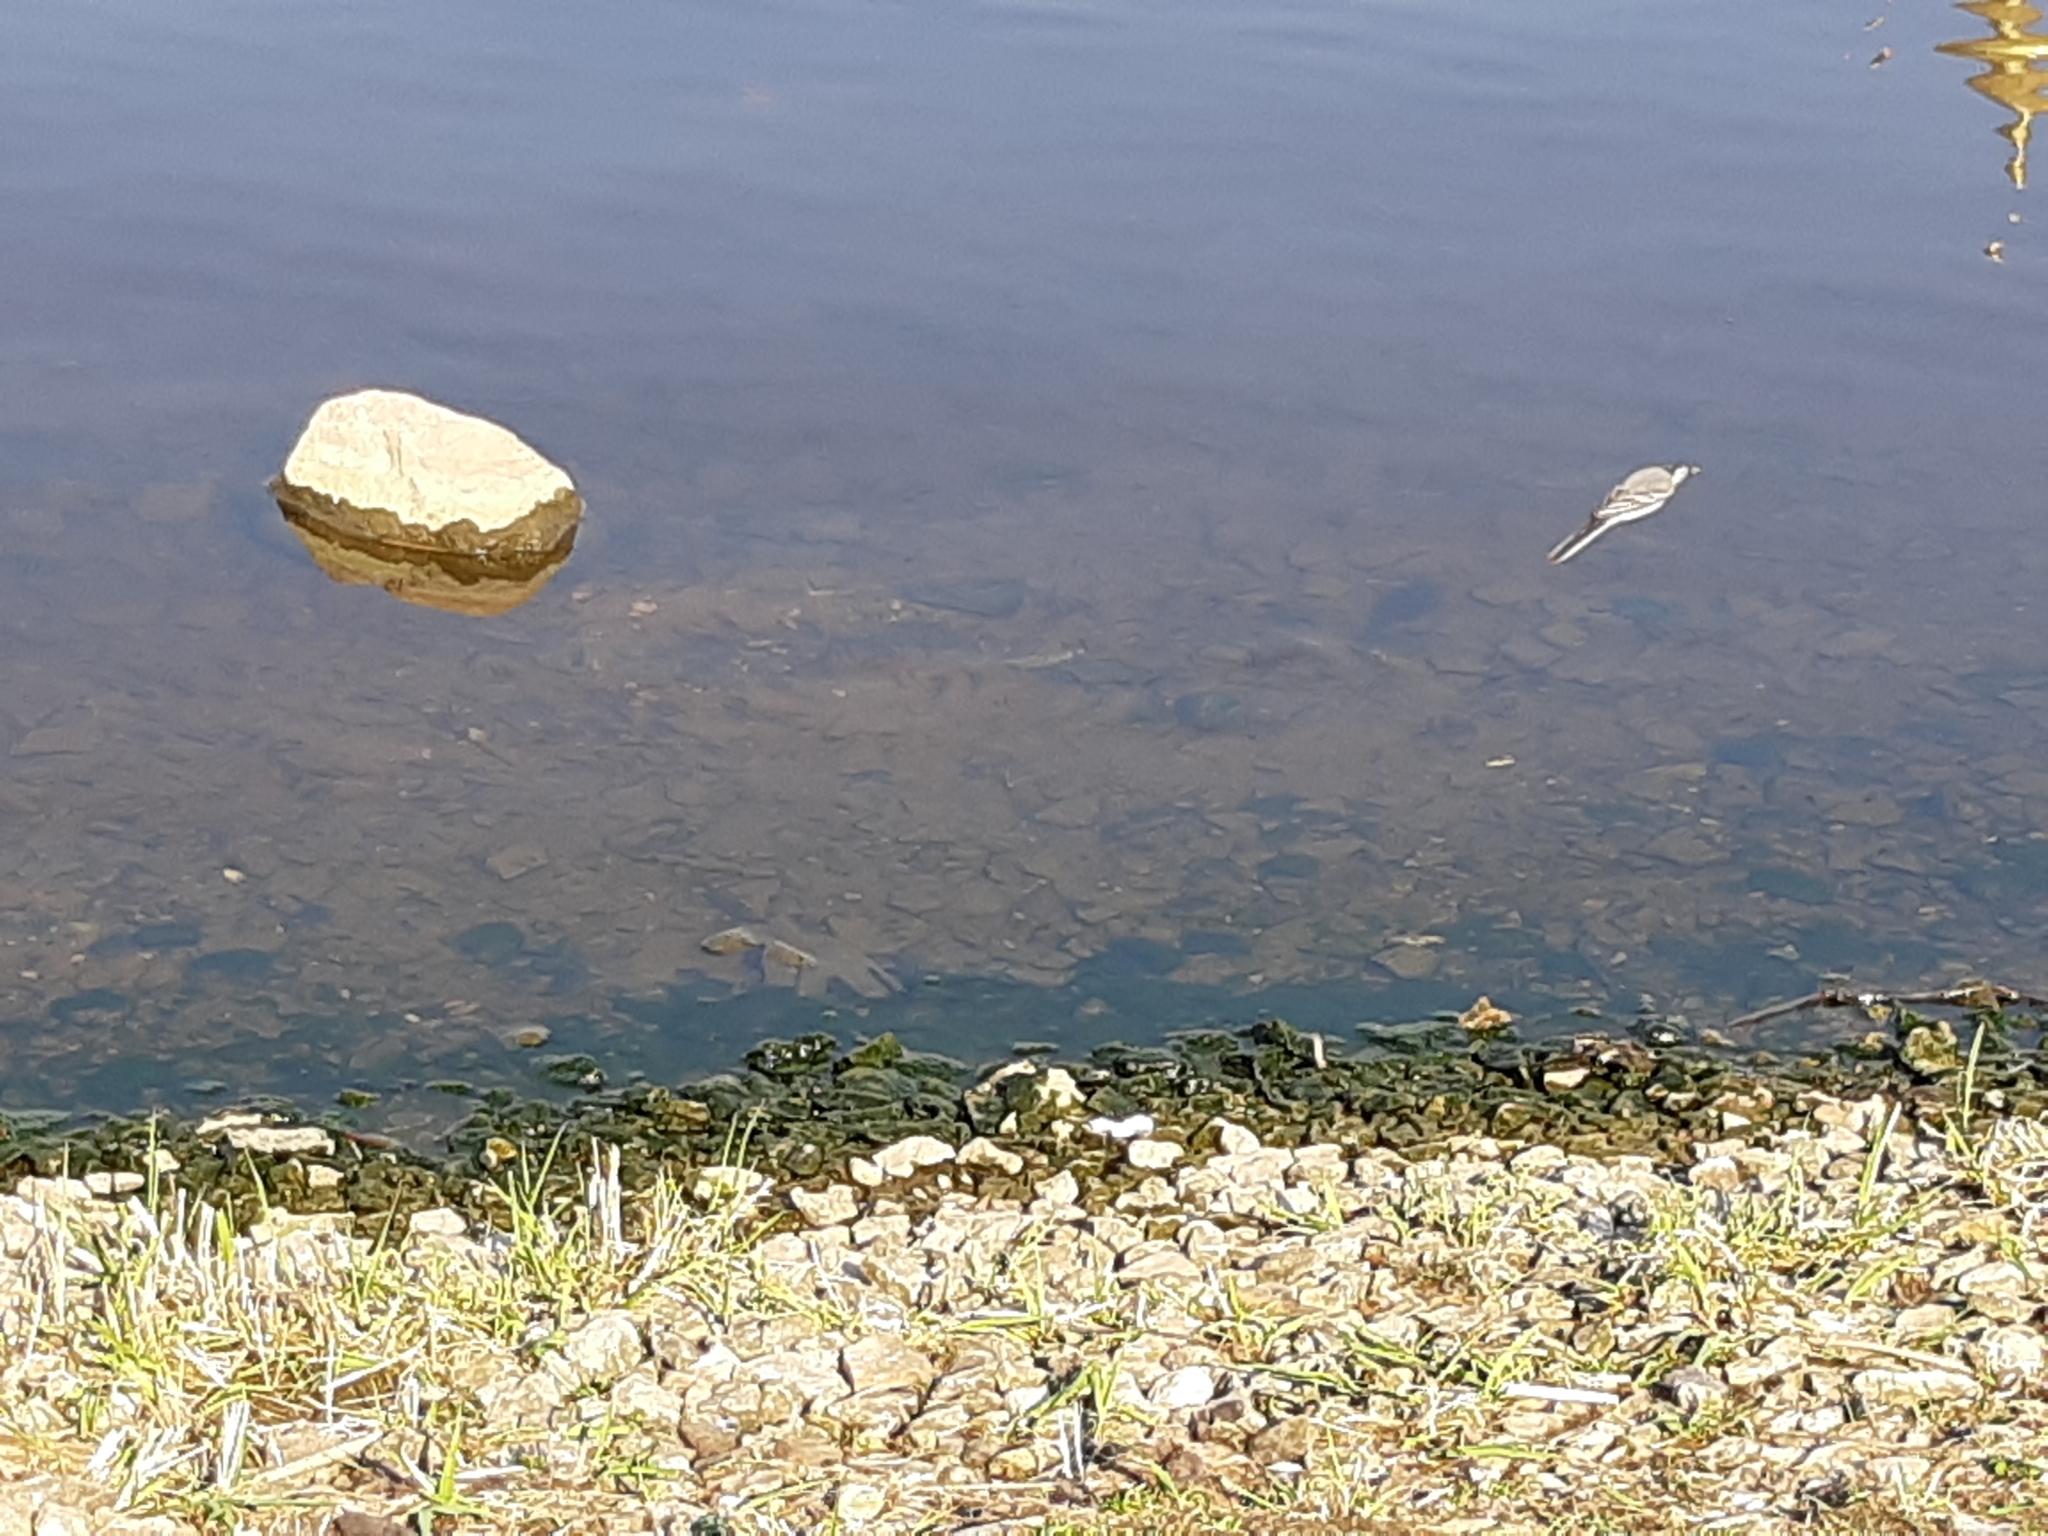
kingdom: Animalia
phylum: Chordata
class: Aves
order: Passeriformes
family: Motacillidae
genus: Motacilla
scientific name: Motacilla alba
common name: White wagtail
